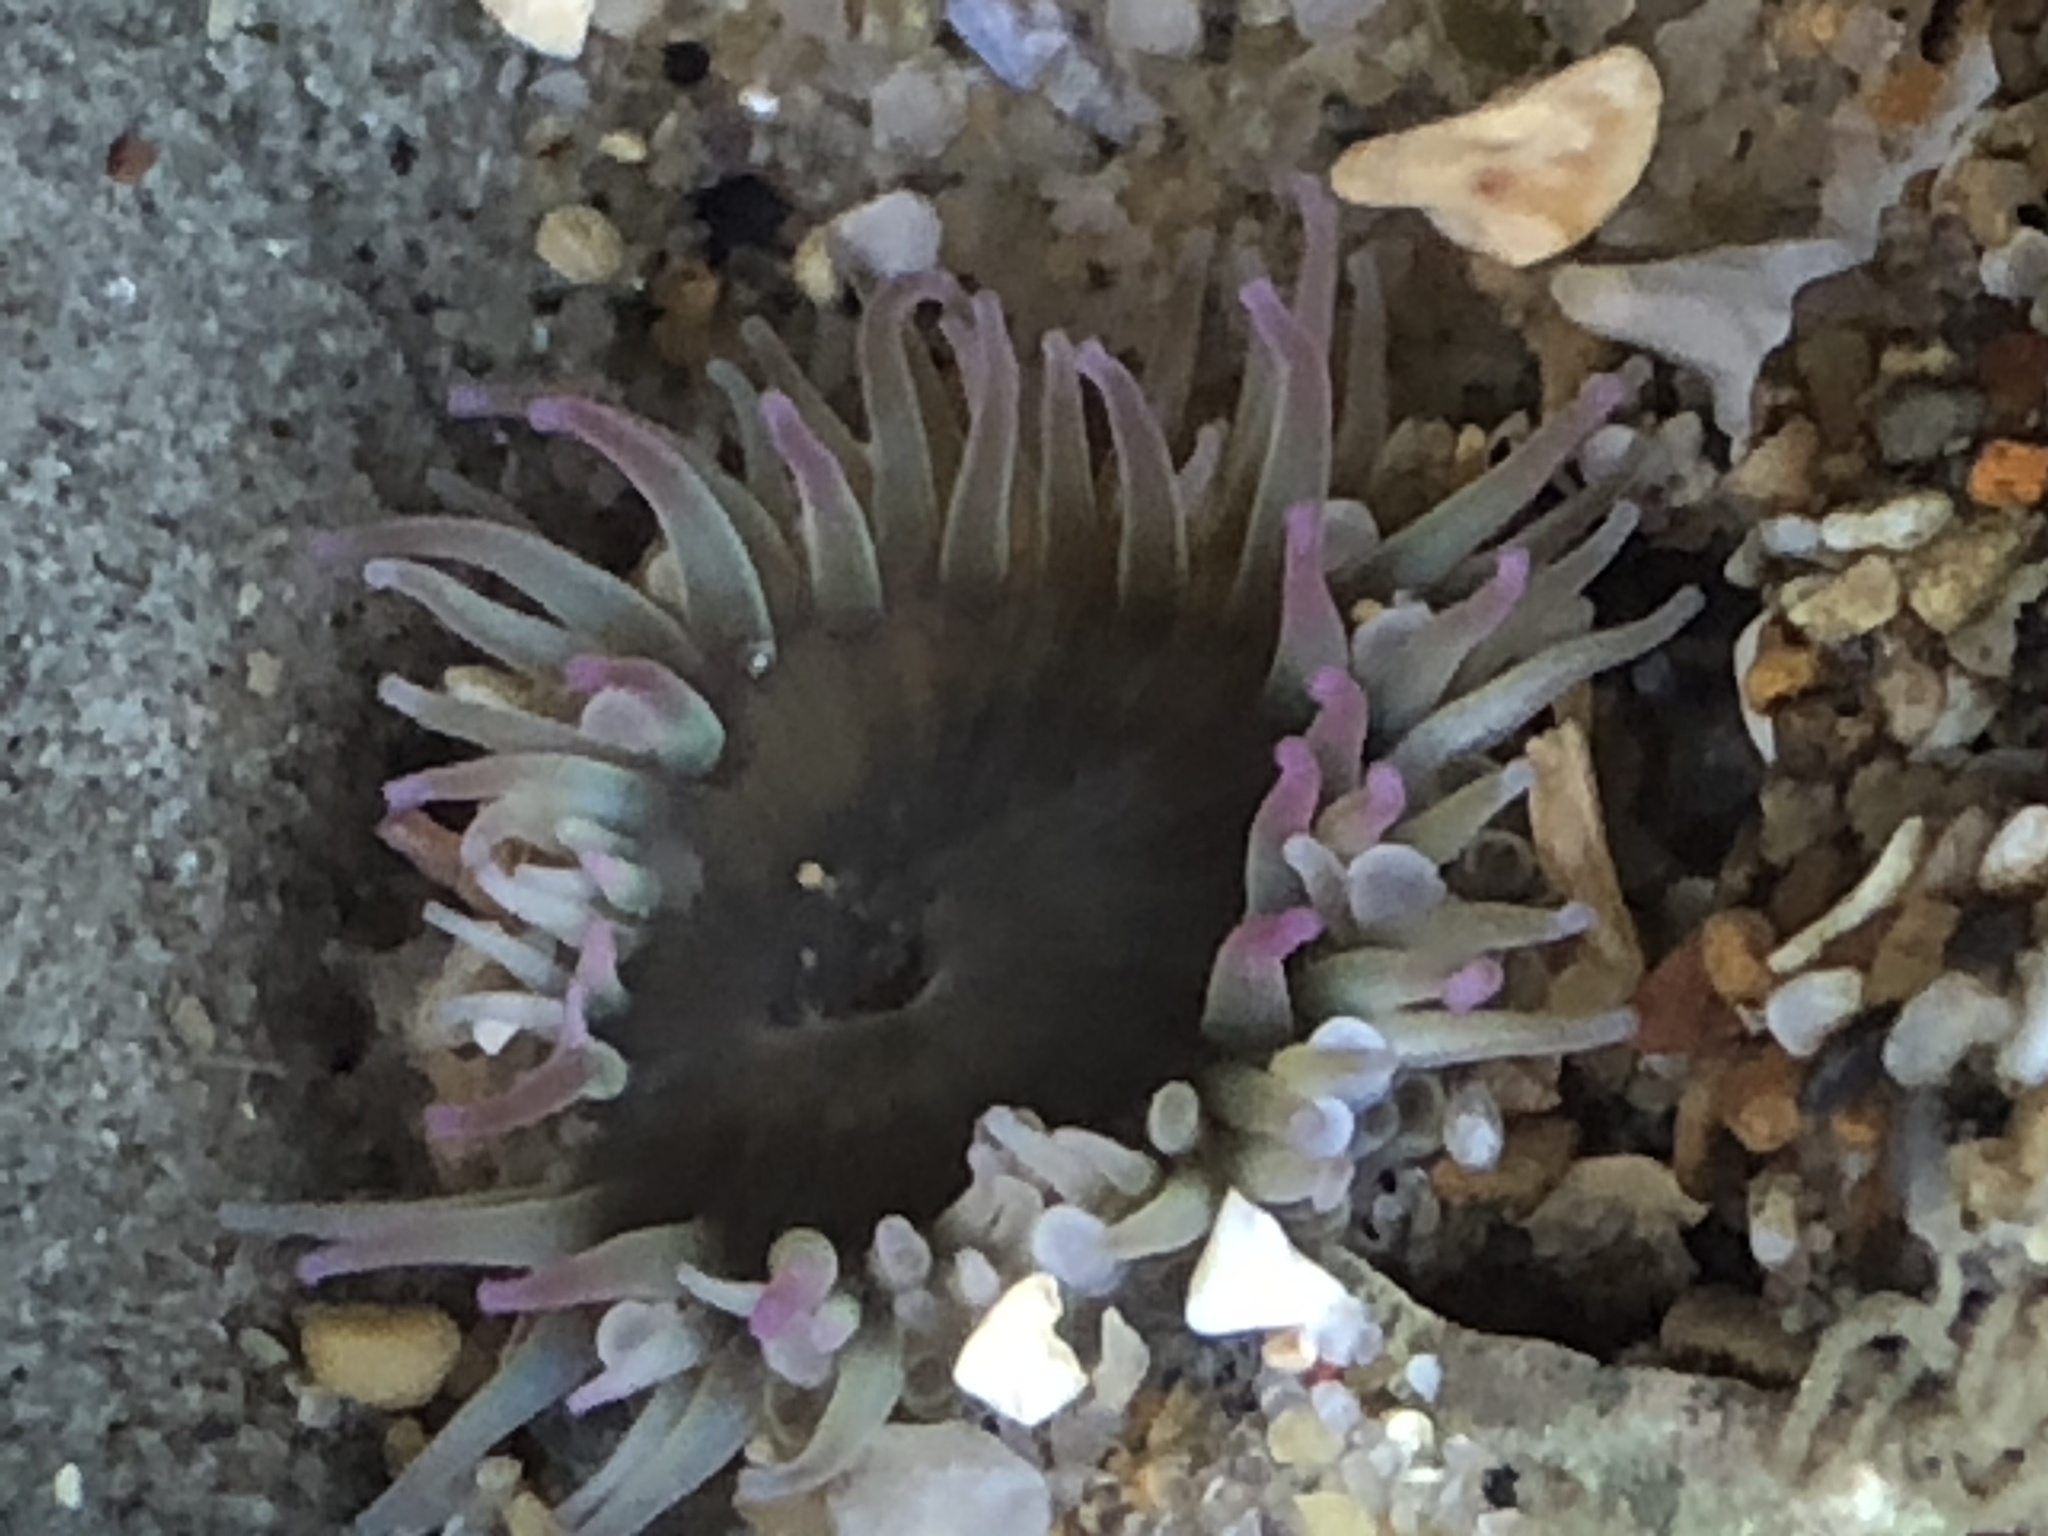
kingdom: Animalia
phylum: Cnidaria
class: Anthozoa
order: Actiniaria
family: Actiniidae
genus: Anthopleura
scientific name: Anthopleura elegantissima
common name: Clonal anemone
